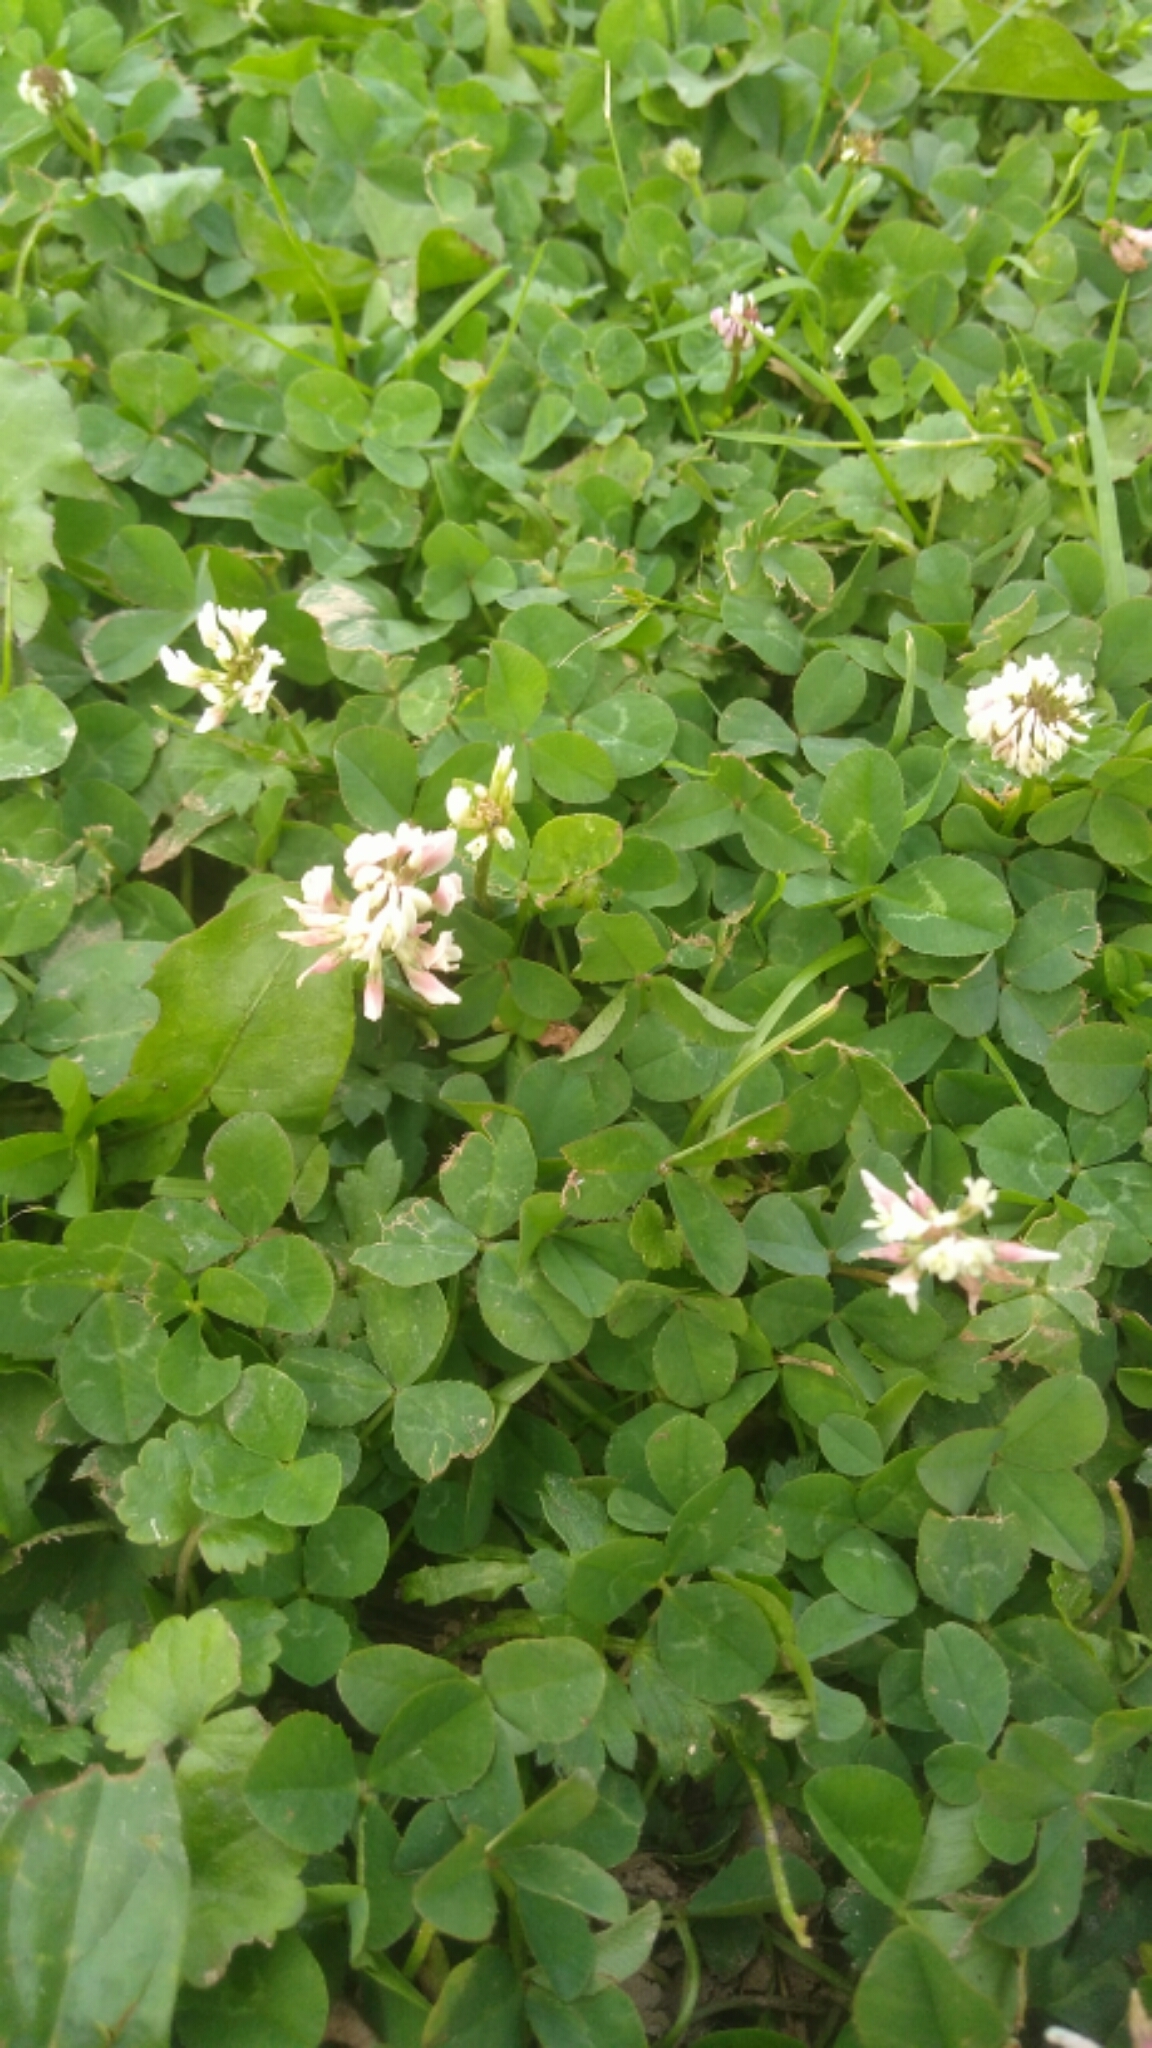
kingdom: Plantae
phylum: Tracheophyta
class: Magnoliopsida
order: Fabales
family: Fabaceae
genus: Trifolium
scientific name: Trifolium repens
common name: White clover
